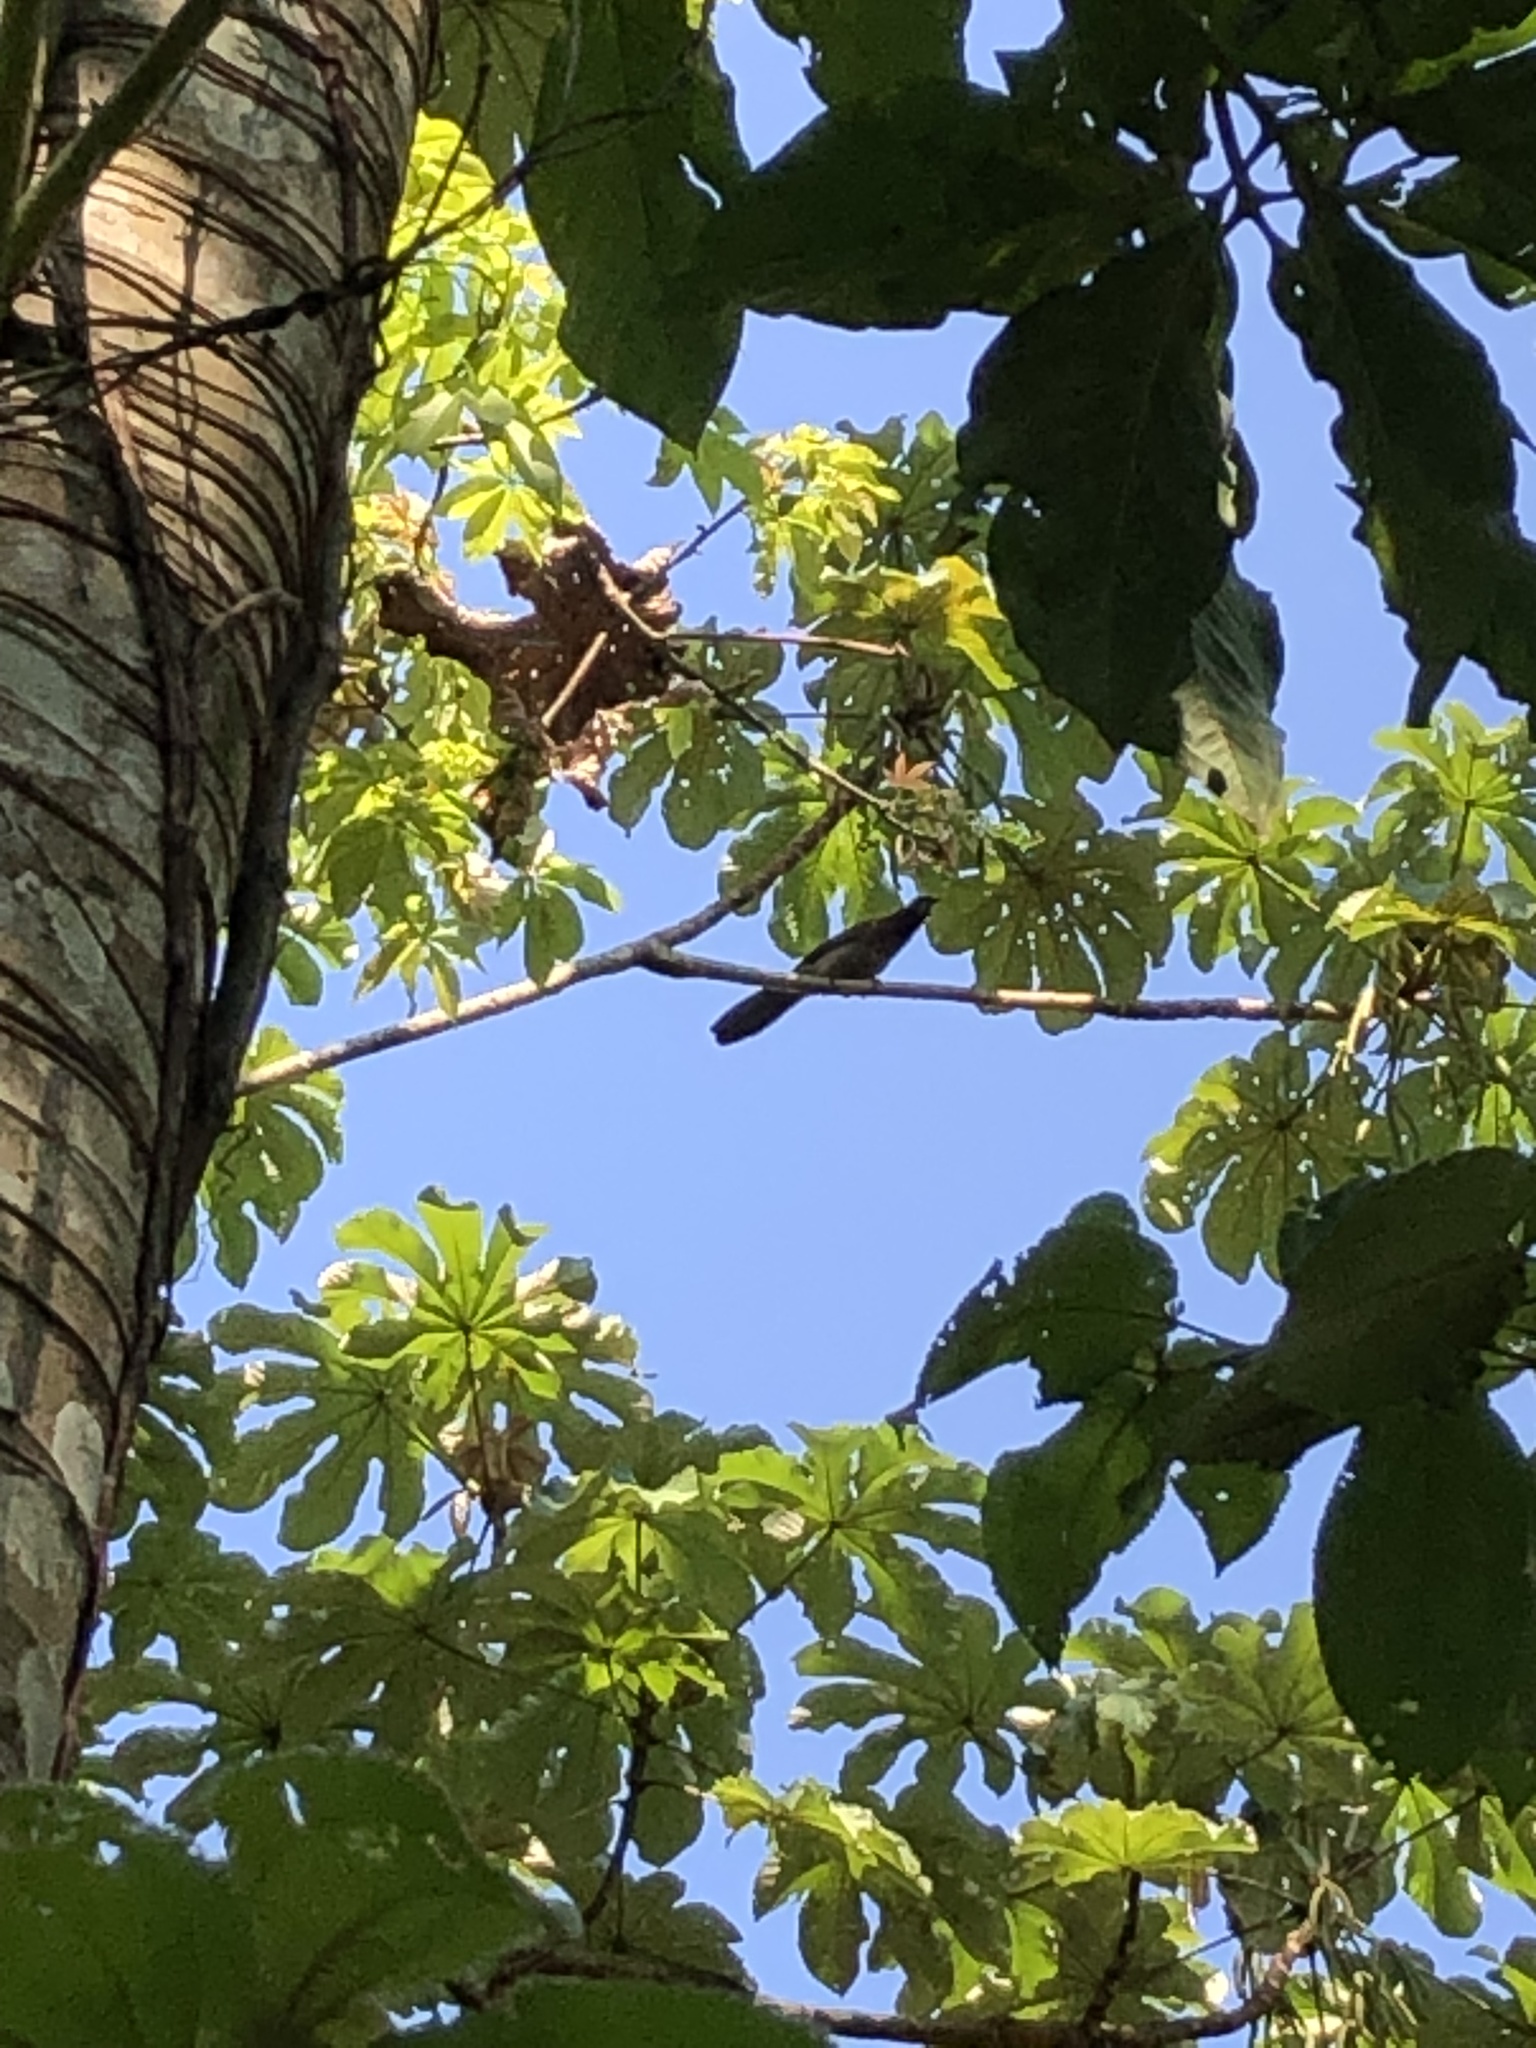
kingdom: Animalia
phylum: Chordata
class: Aves
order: Passeriformes
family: Corvidae
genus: Psilorhinus
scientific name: Psilorhinus morio
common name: Brown jay
